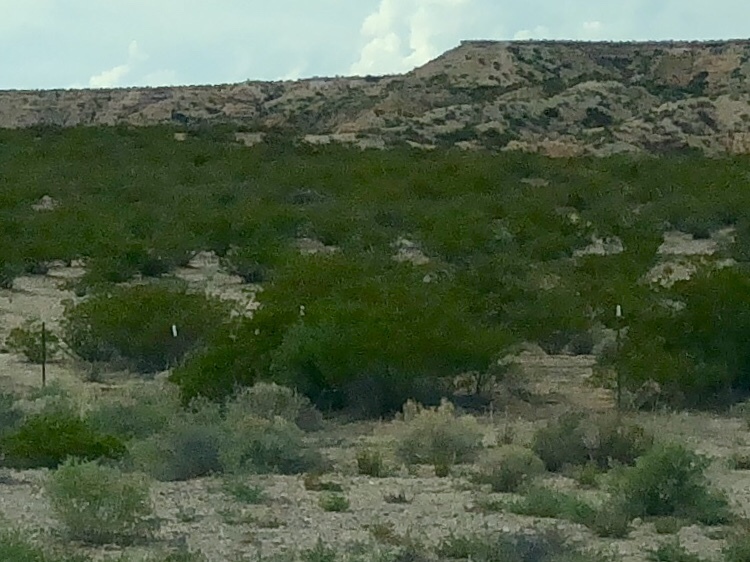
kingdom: Plantae
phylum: Tracheophyta
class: Magnoliopsida
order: Zygophyllales
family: Zygophyllaceae
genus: Larrea
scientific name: Larrea tridentata
